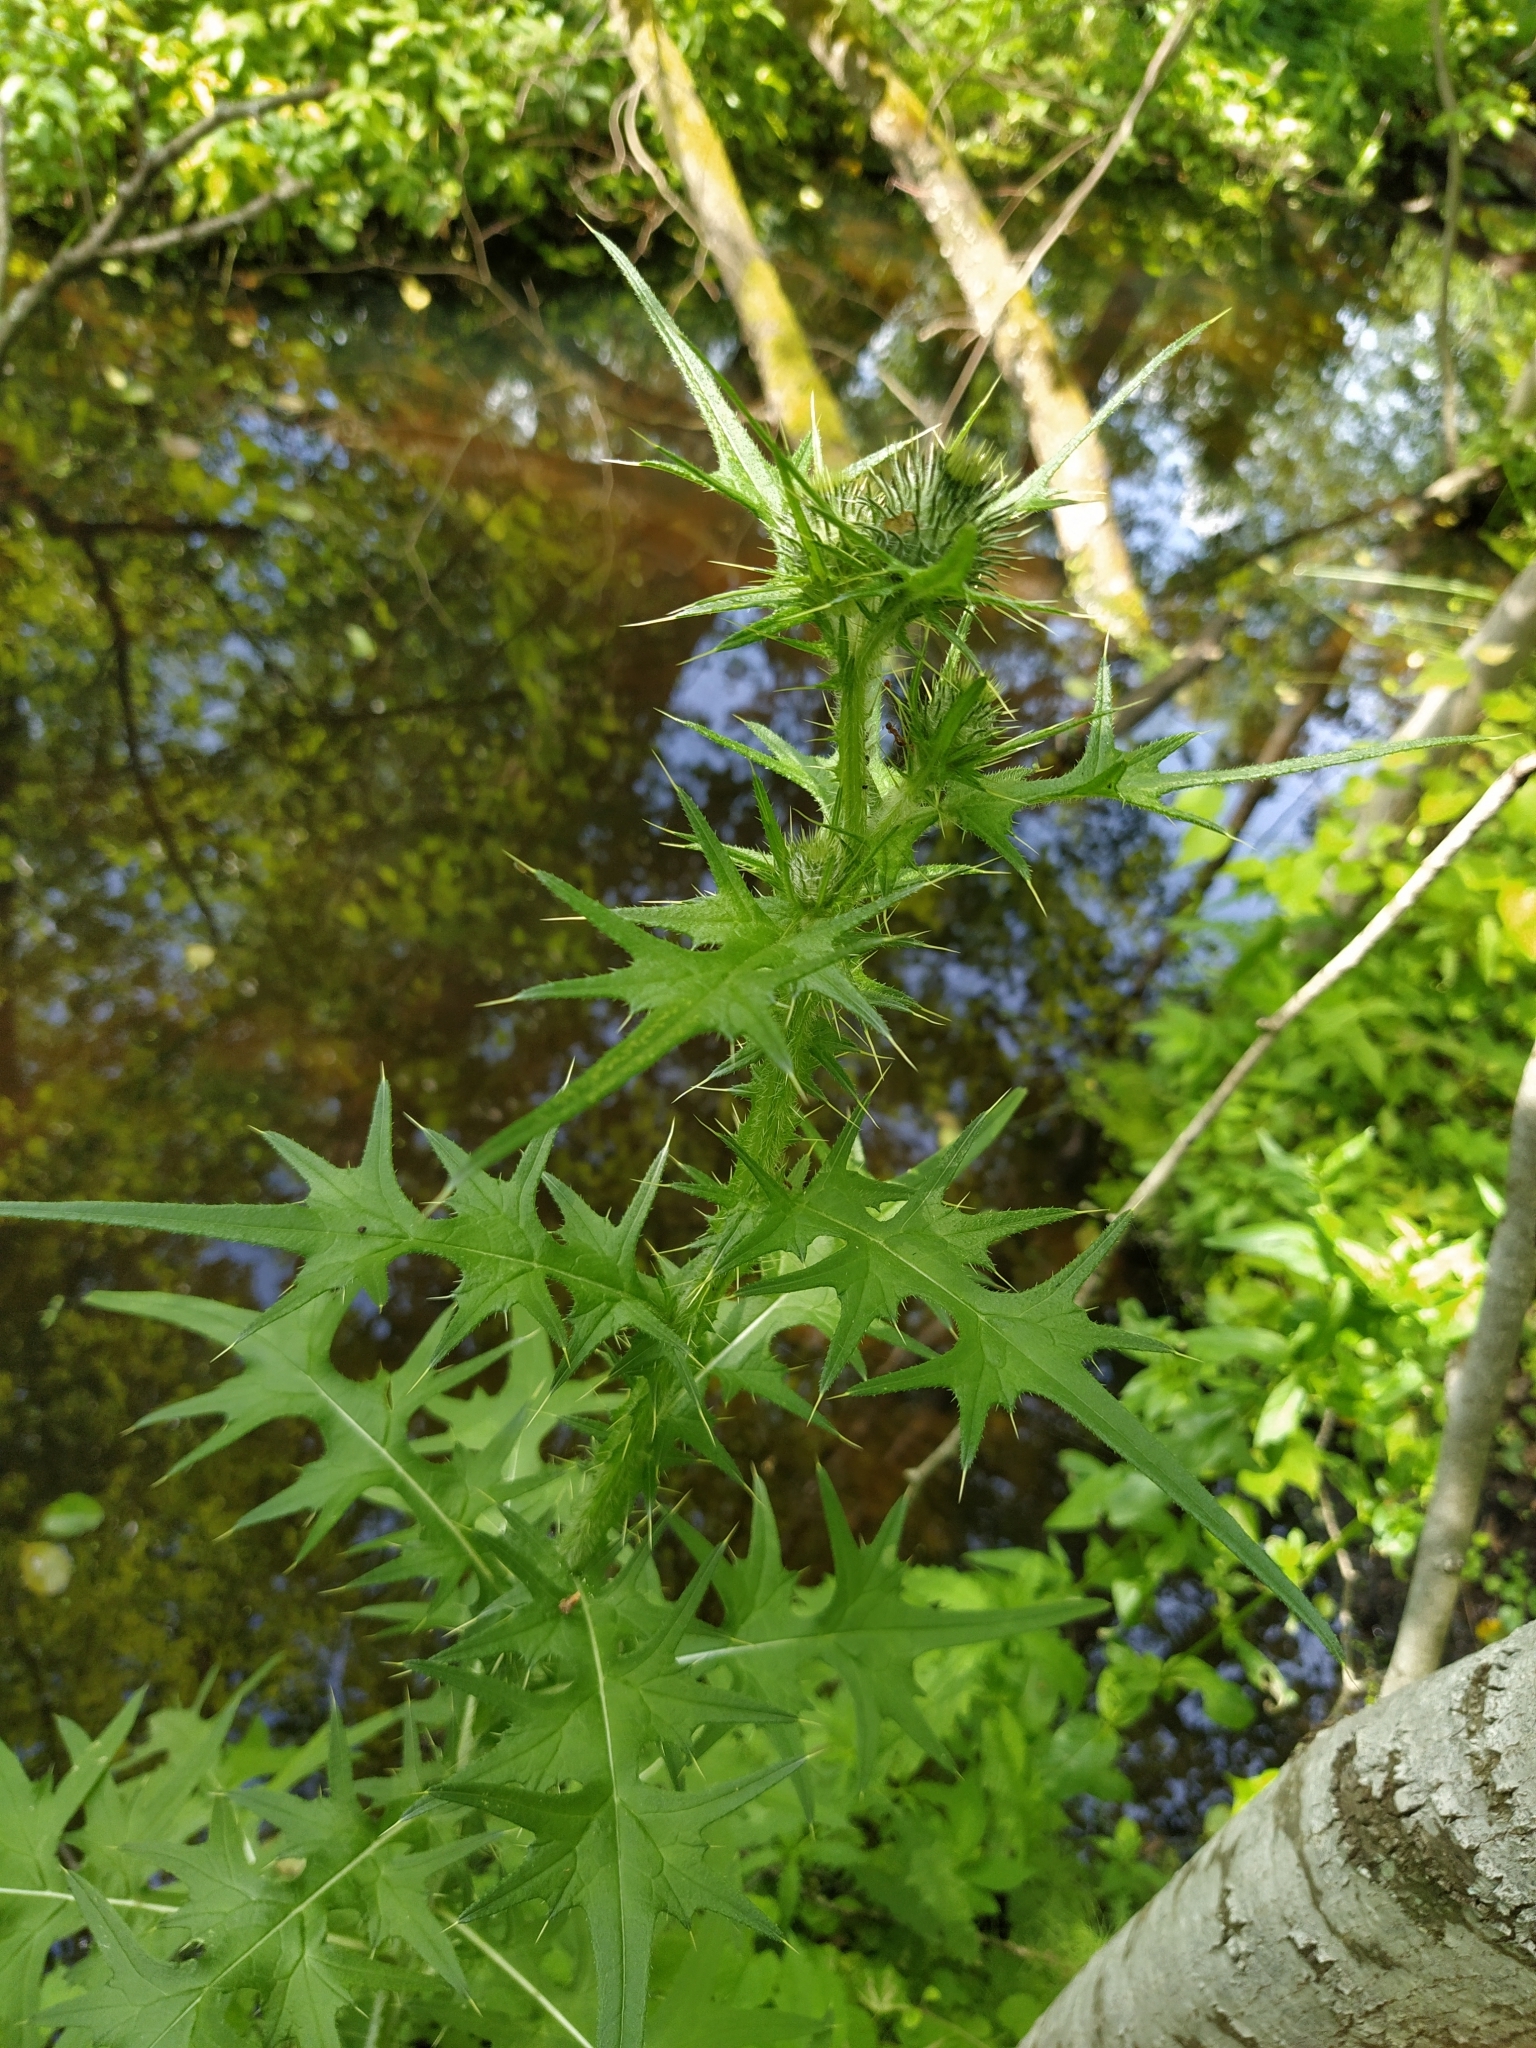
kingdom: Plantae
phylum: Tracheophyta
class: Magnoliopsida
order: Asterales
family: Asteraceae
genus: Cirsium
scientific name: Cirsium vulgare
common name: Bull thistle
